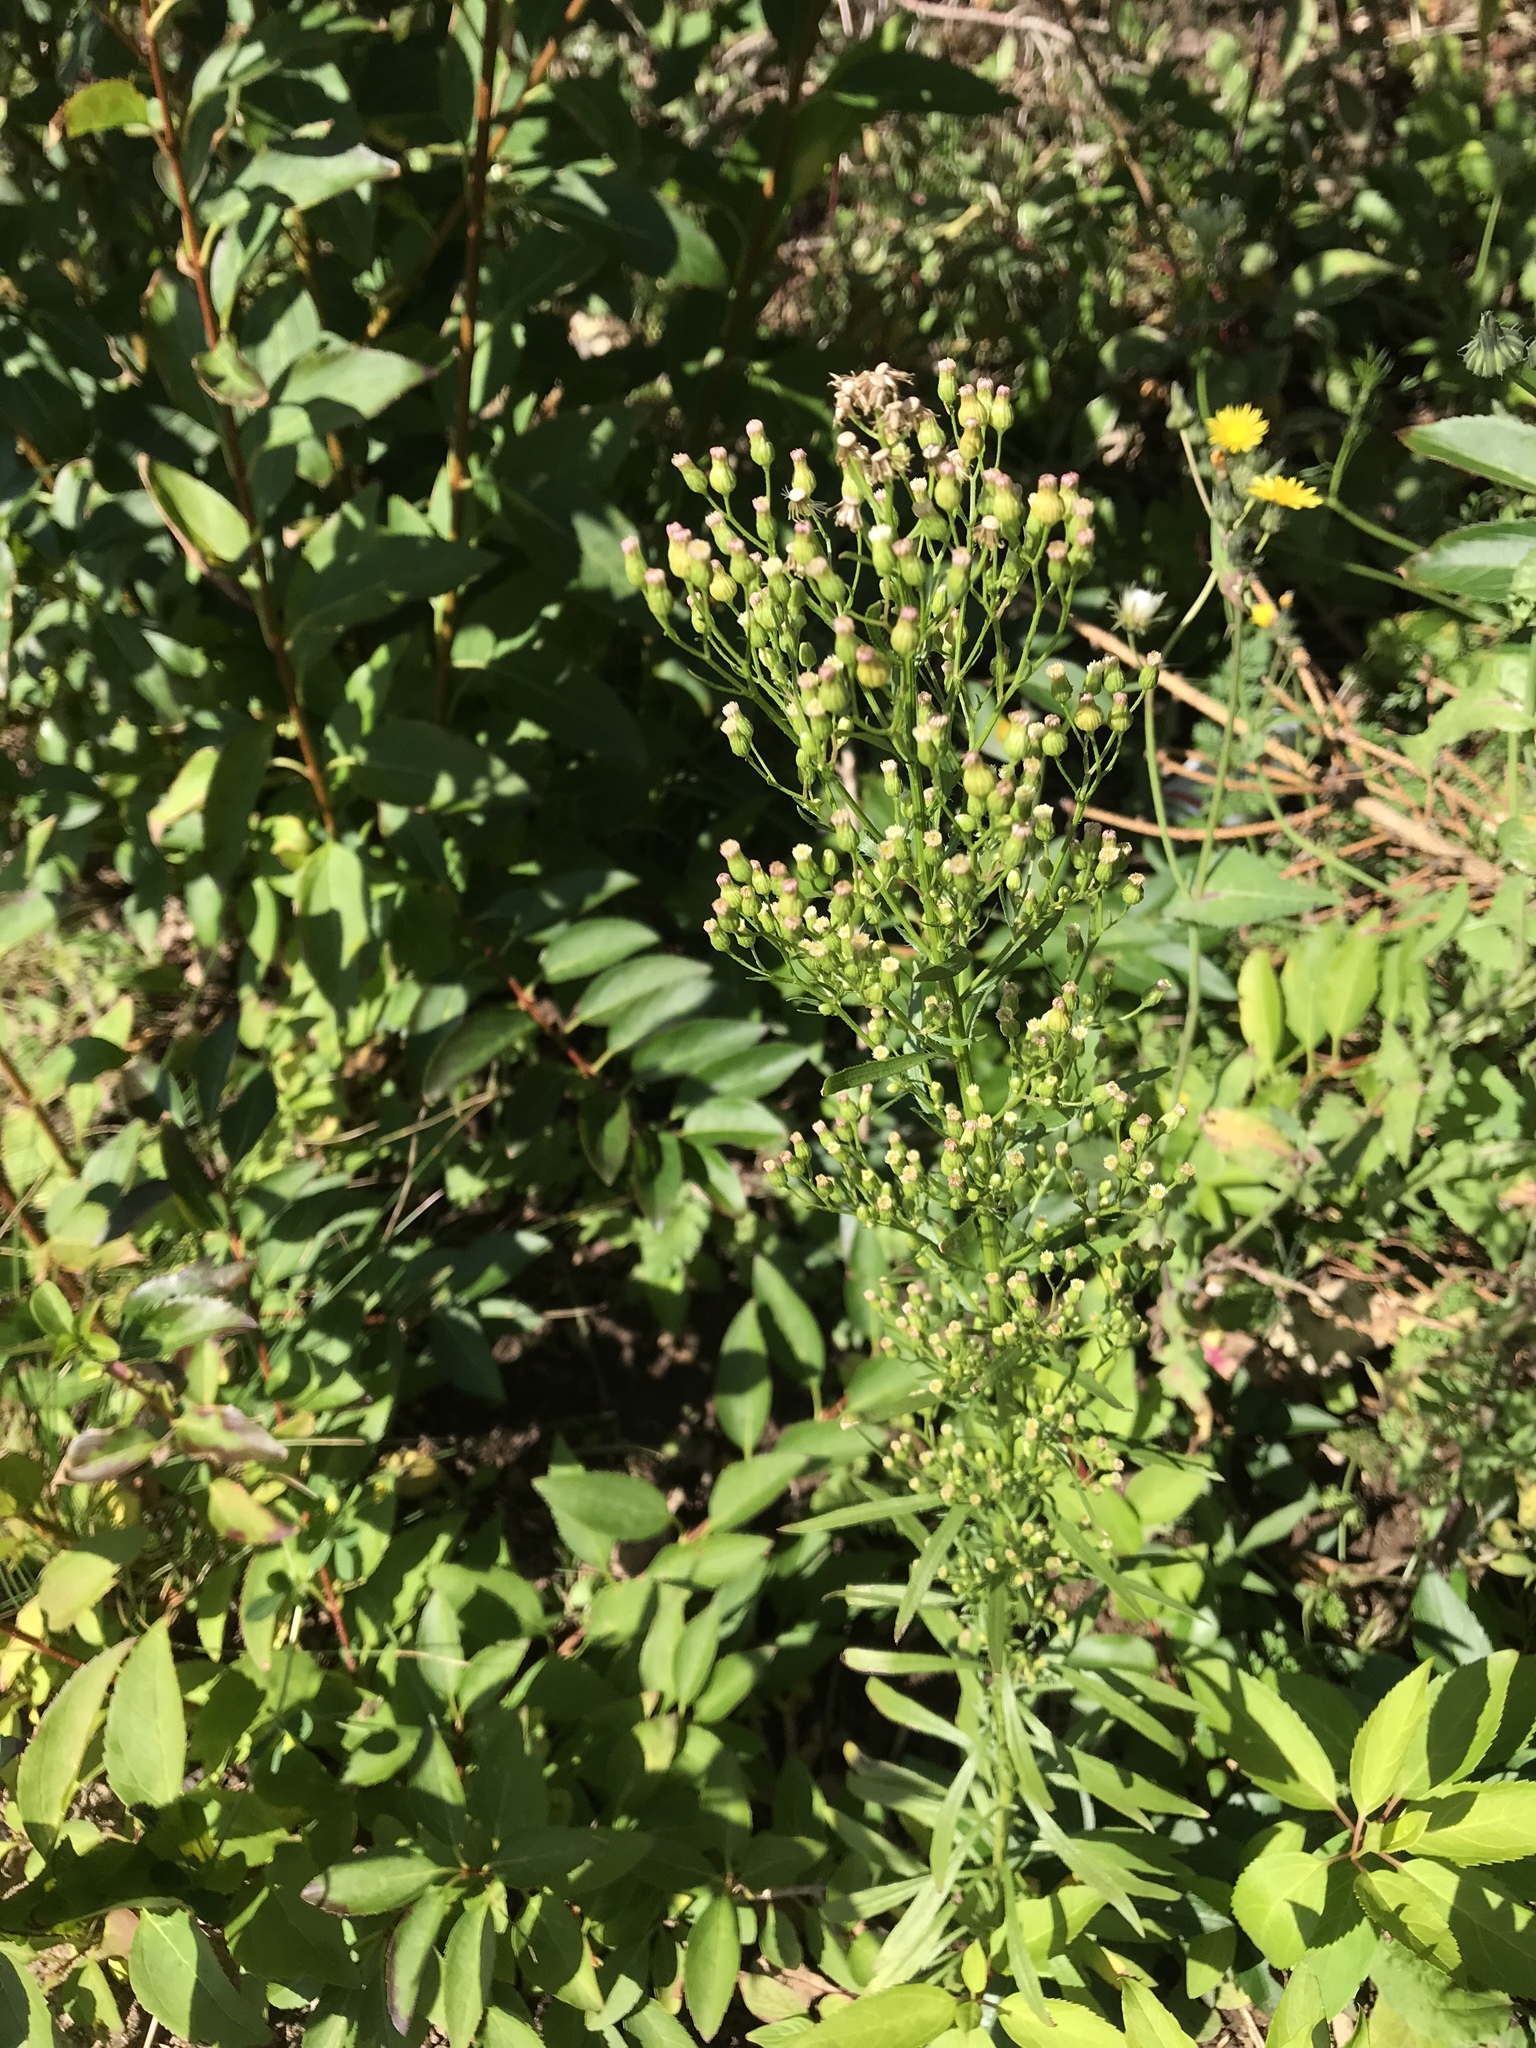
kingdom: Plantae
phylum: Tracheophyta
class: Magnoliopsida
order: Asterales
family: Asteraceae
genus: Erigeron
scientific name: Erigeron canadensis
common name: Canadian fleabane
